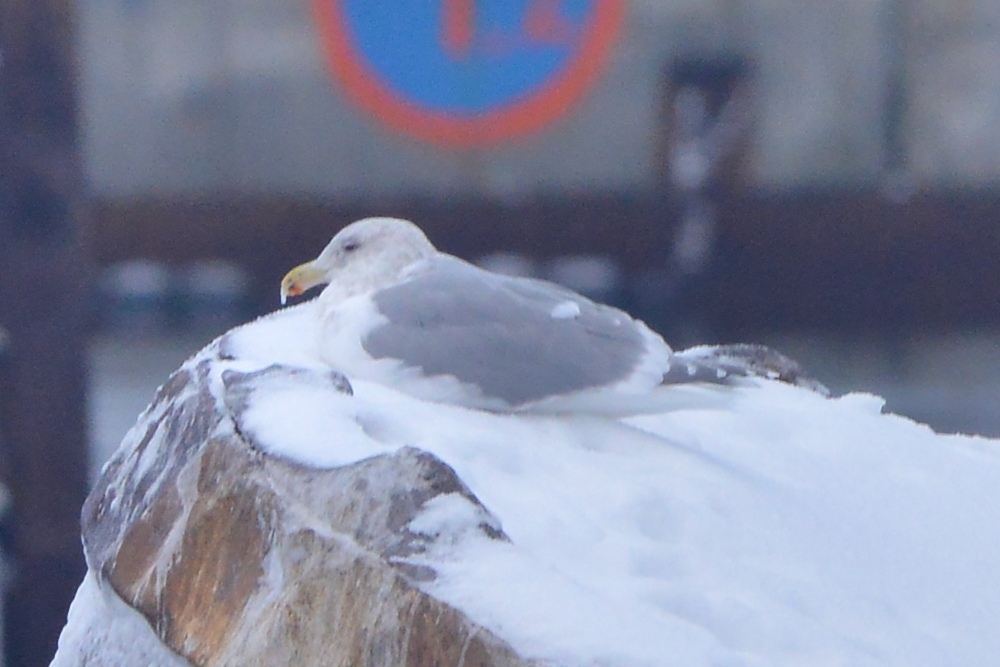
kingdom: Animalia
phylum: Chordata
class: Aves
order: Charadriiformes
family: Laridae
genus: Larus
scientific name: Larus glaucescens
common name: Glaucous-winged gull
